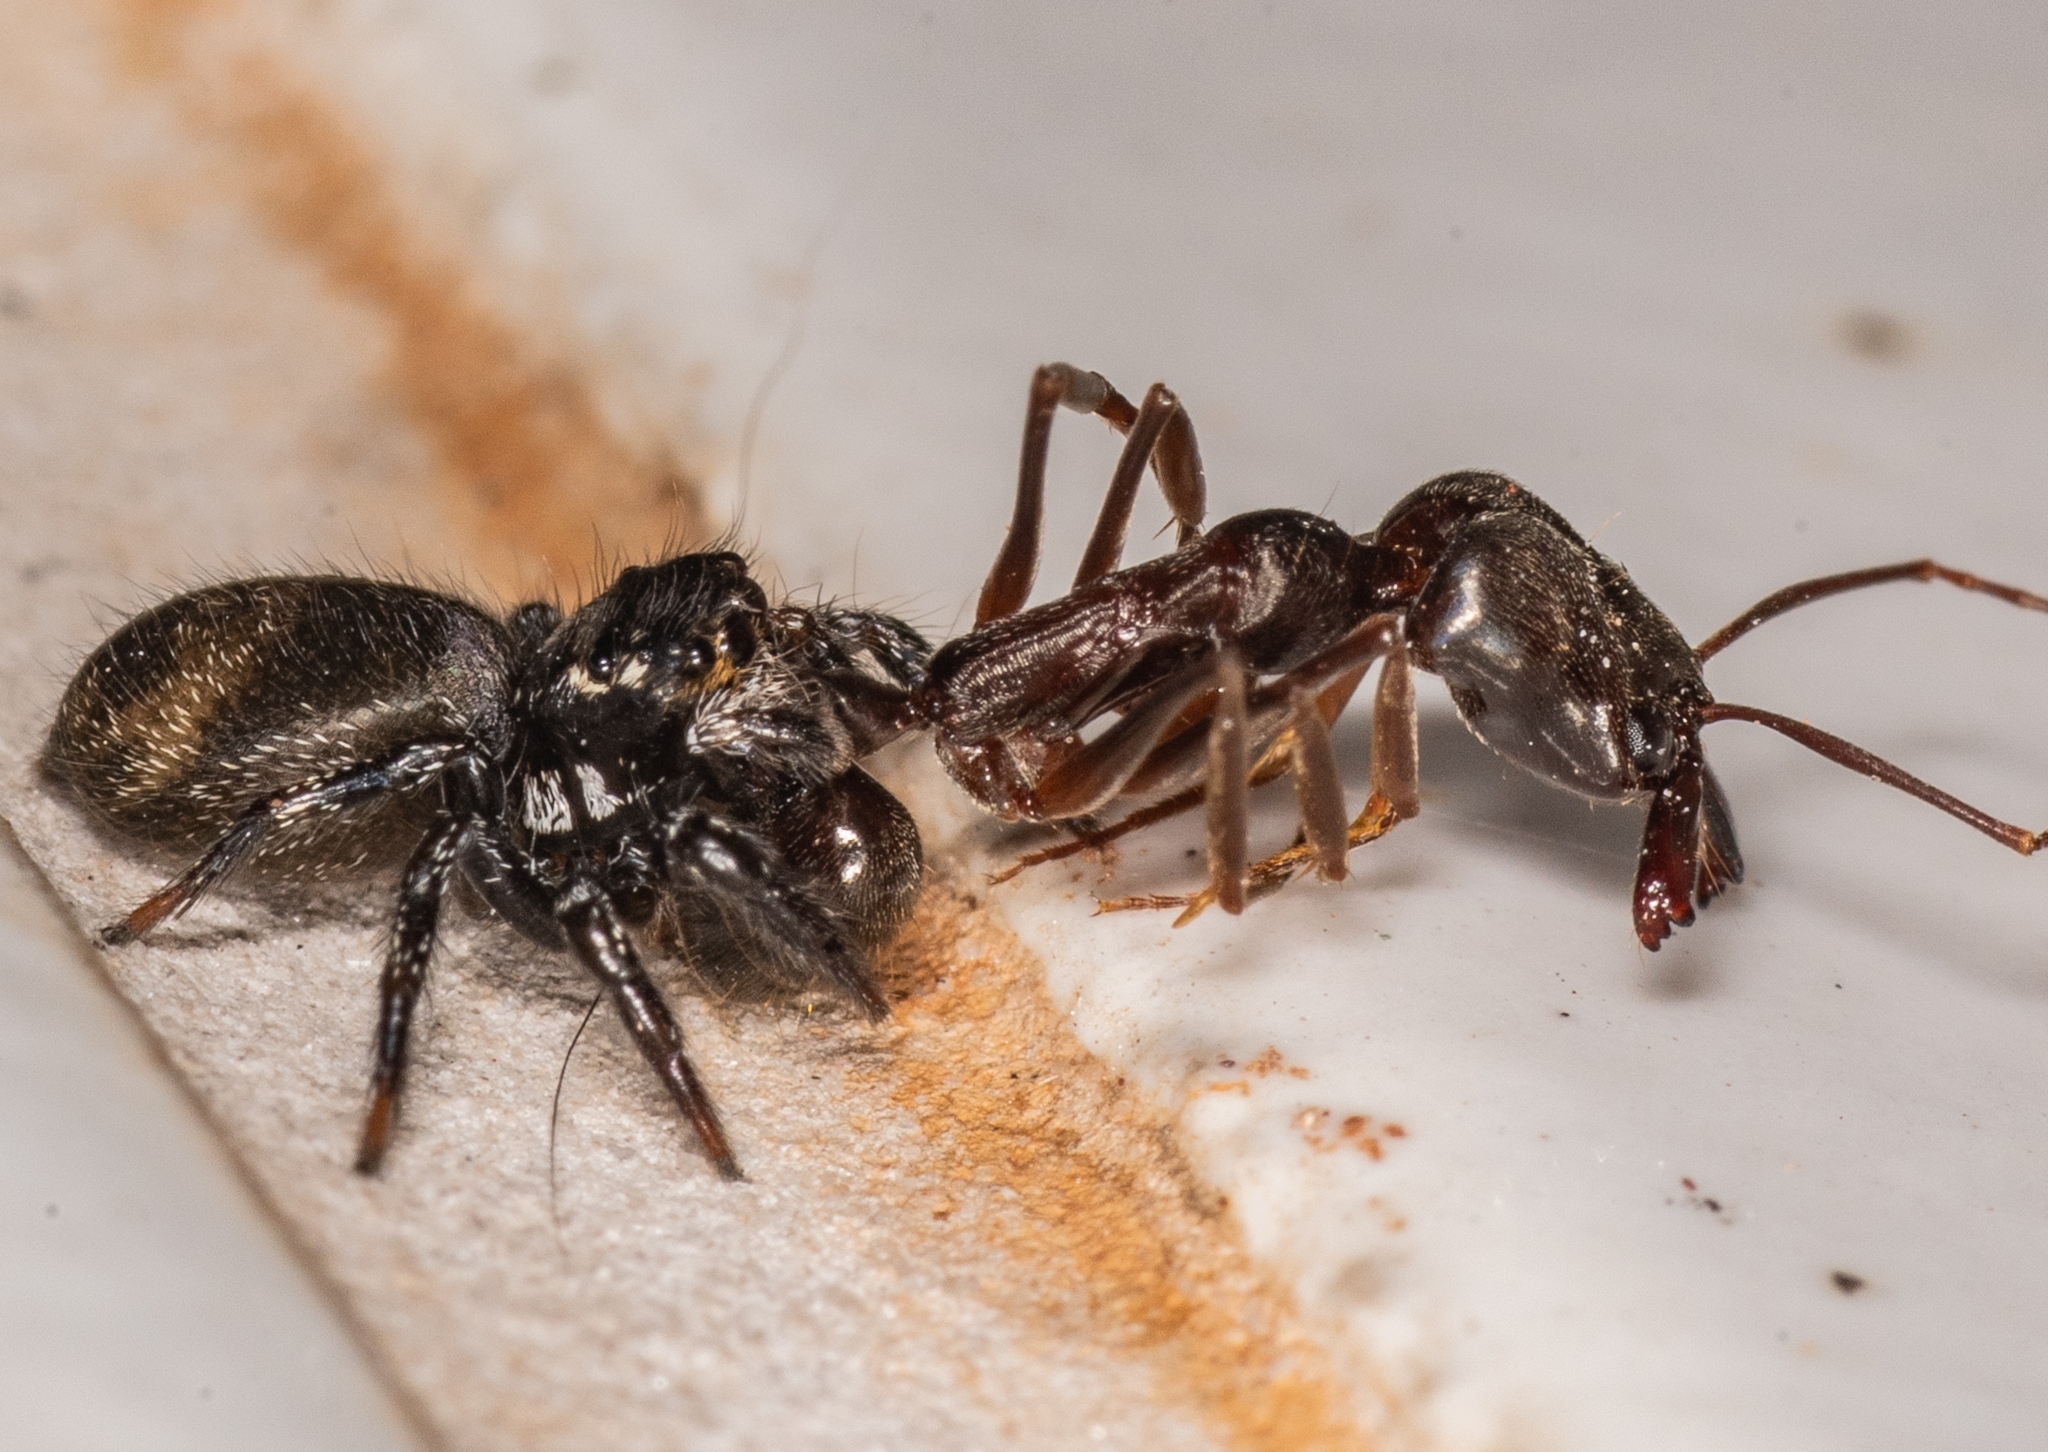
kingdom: Animalia
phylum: Arthropoda
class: Arachnida
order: Araneae
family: Salticidae
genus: Corythalia
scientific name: Corythalia conferta
